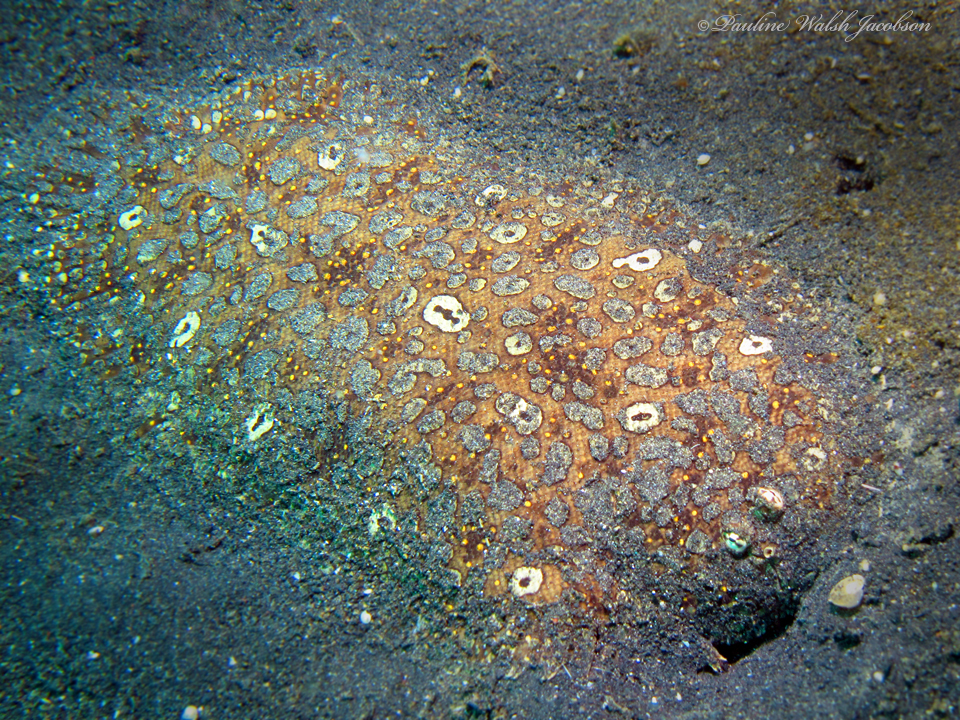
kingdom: Animalia
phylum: Chordata
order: Pleuronectiformes
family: Soleidae
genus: Pardachirus
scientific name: Pardachirus pavoninus
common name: Ocellated sole
